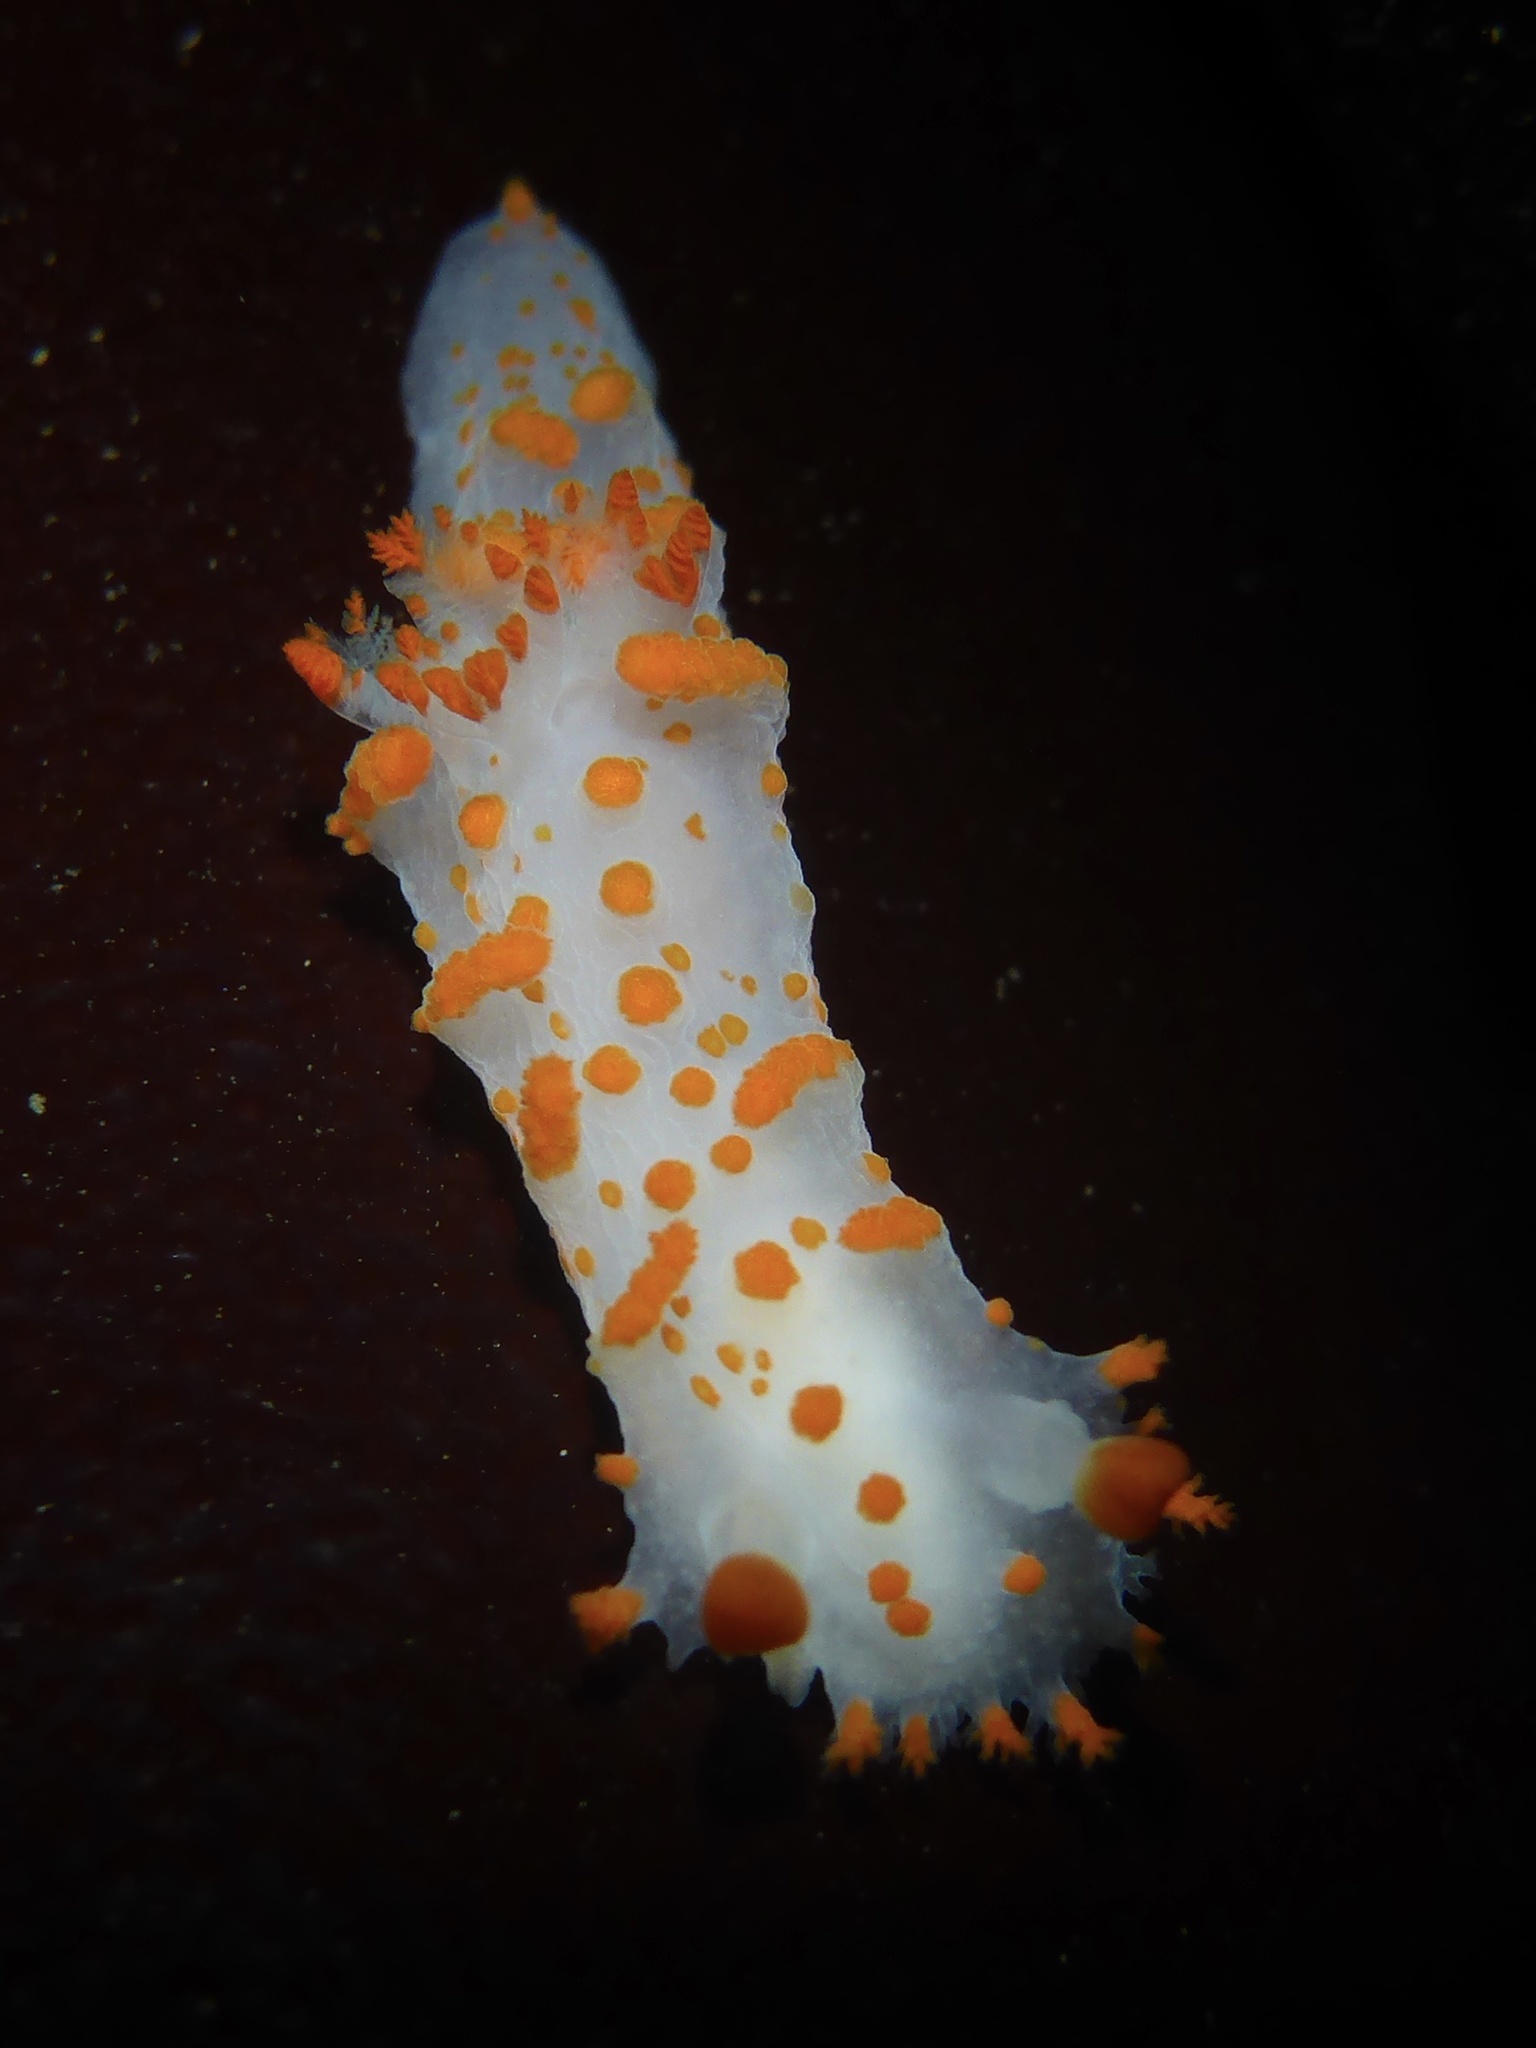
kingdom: Animalia
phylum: Mollusca
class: Gastropoda
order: Nudibranchia
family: Polyceridae
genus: Triopha
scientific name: Triopha catalinae
